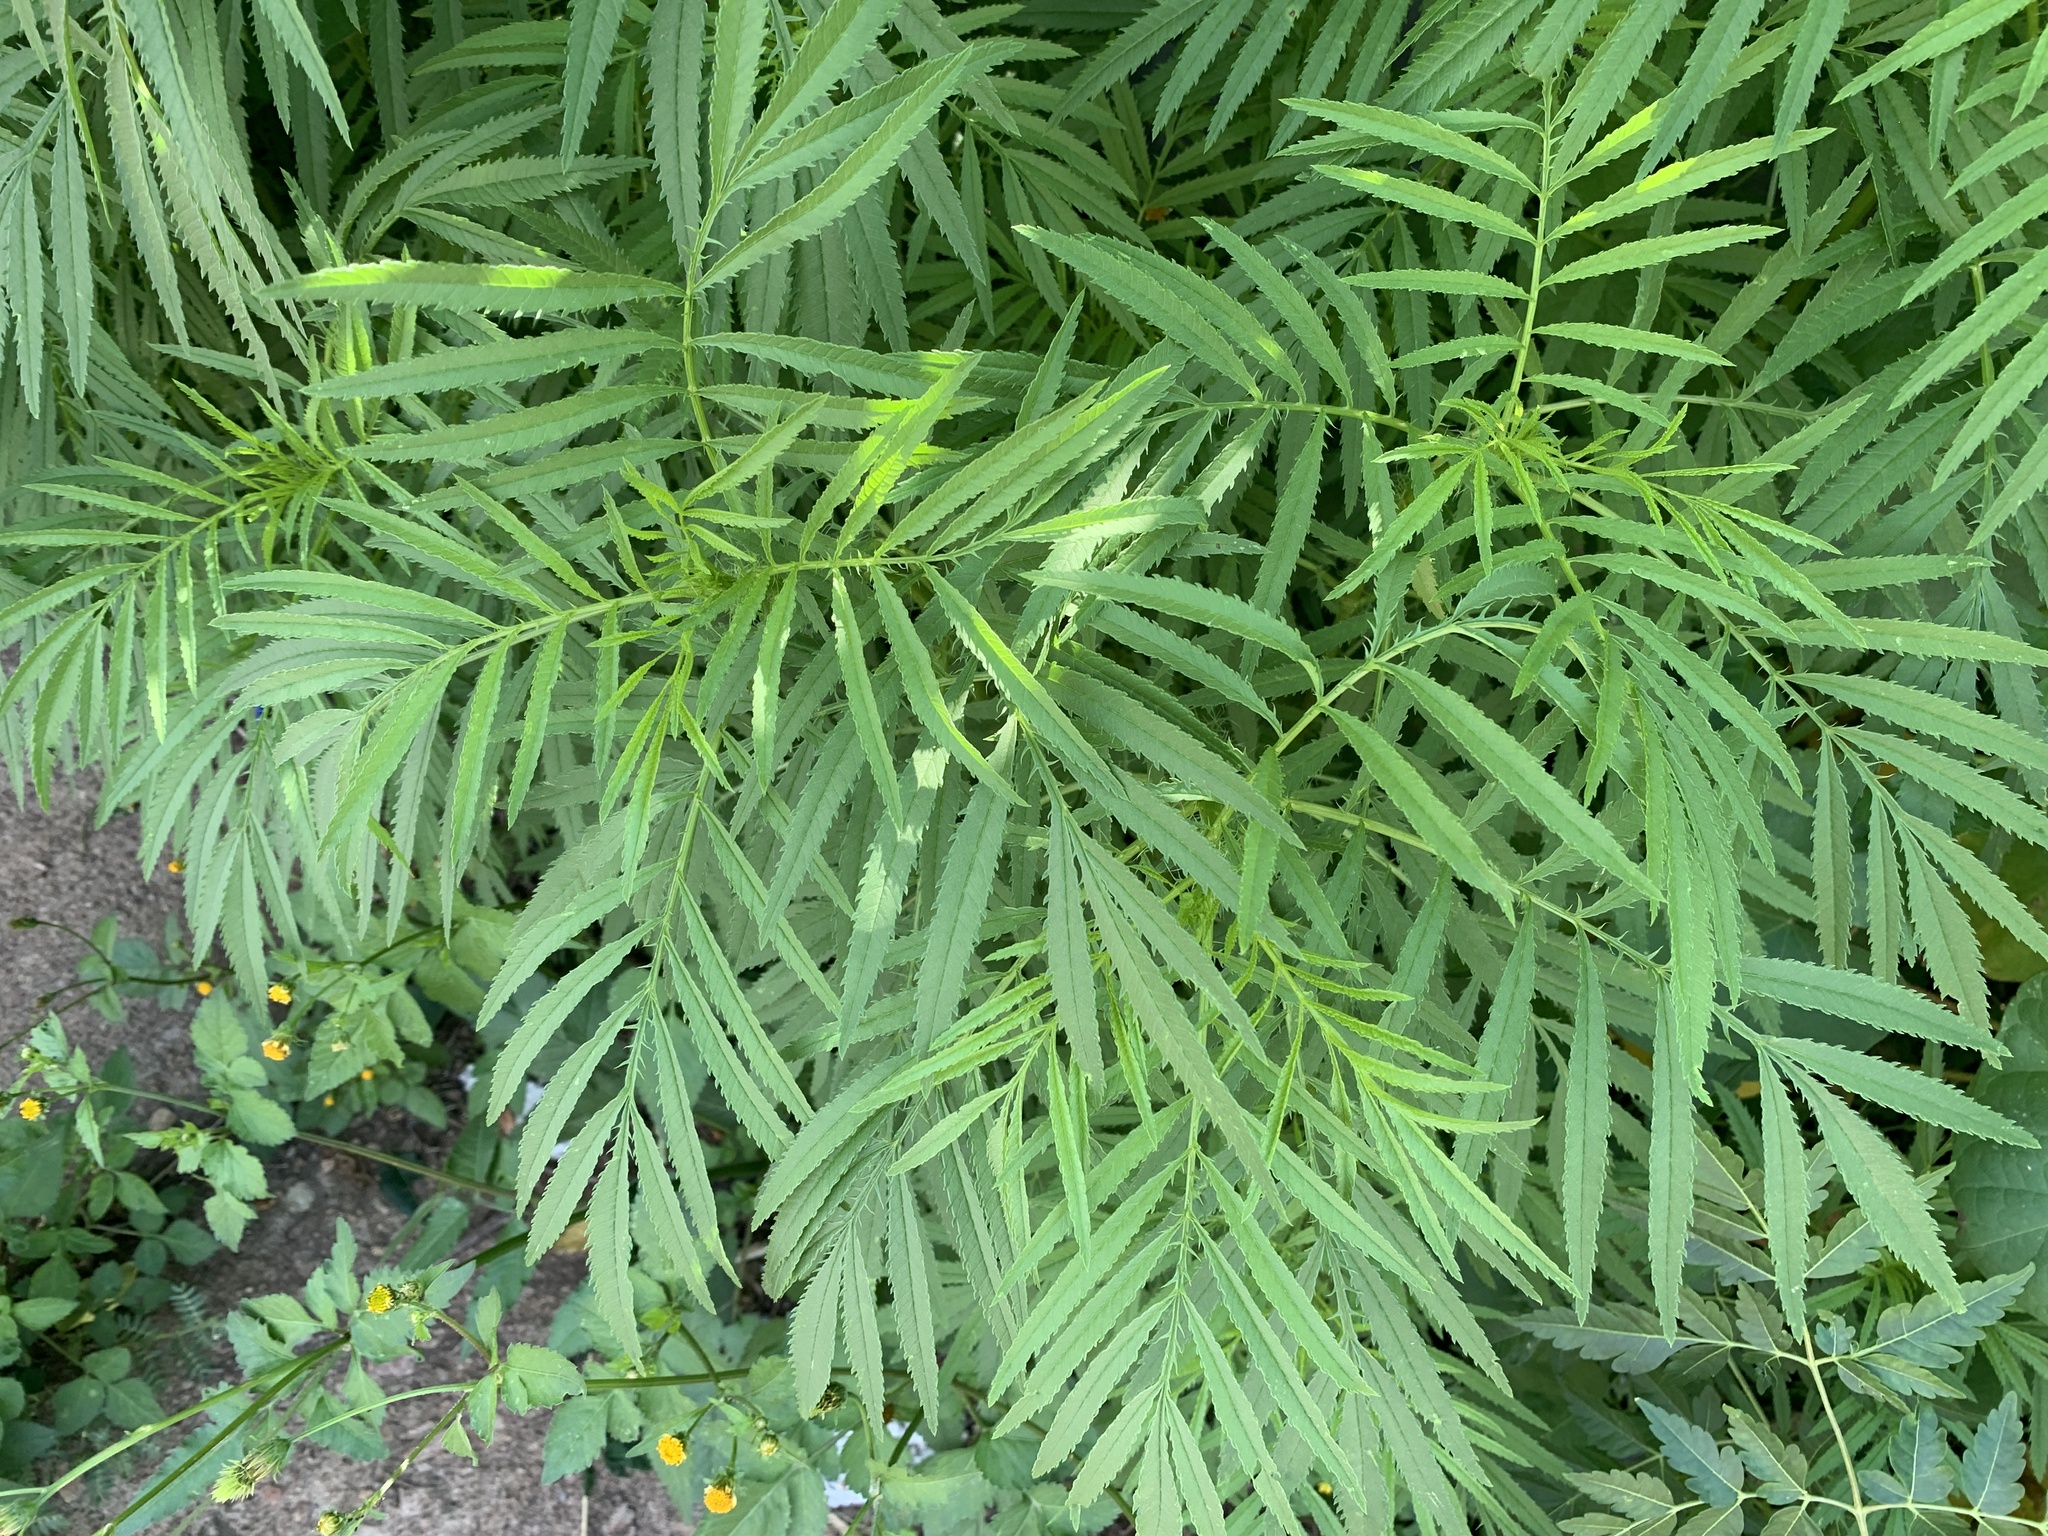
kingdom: Plantae
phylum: Tracheophyta
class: Magnoliopsida
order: Asterales
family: Asteraceae
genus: Tagetes
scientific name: Tagetes minuta
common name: Muster john henry
